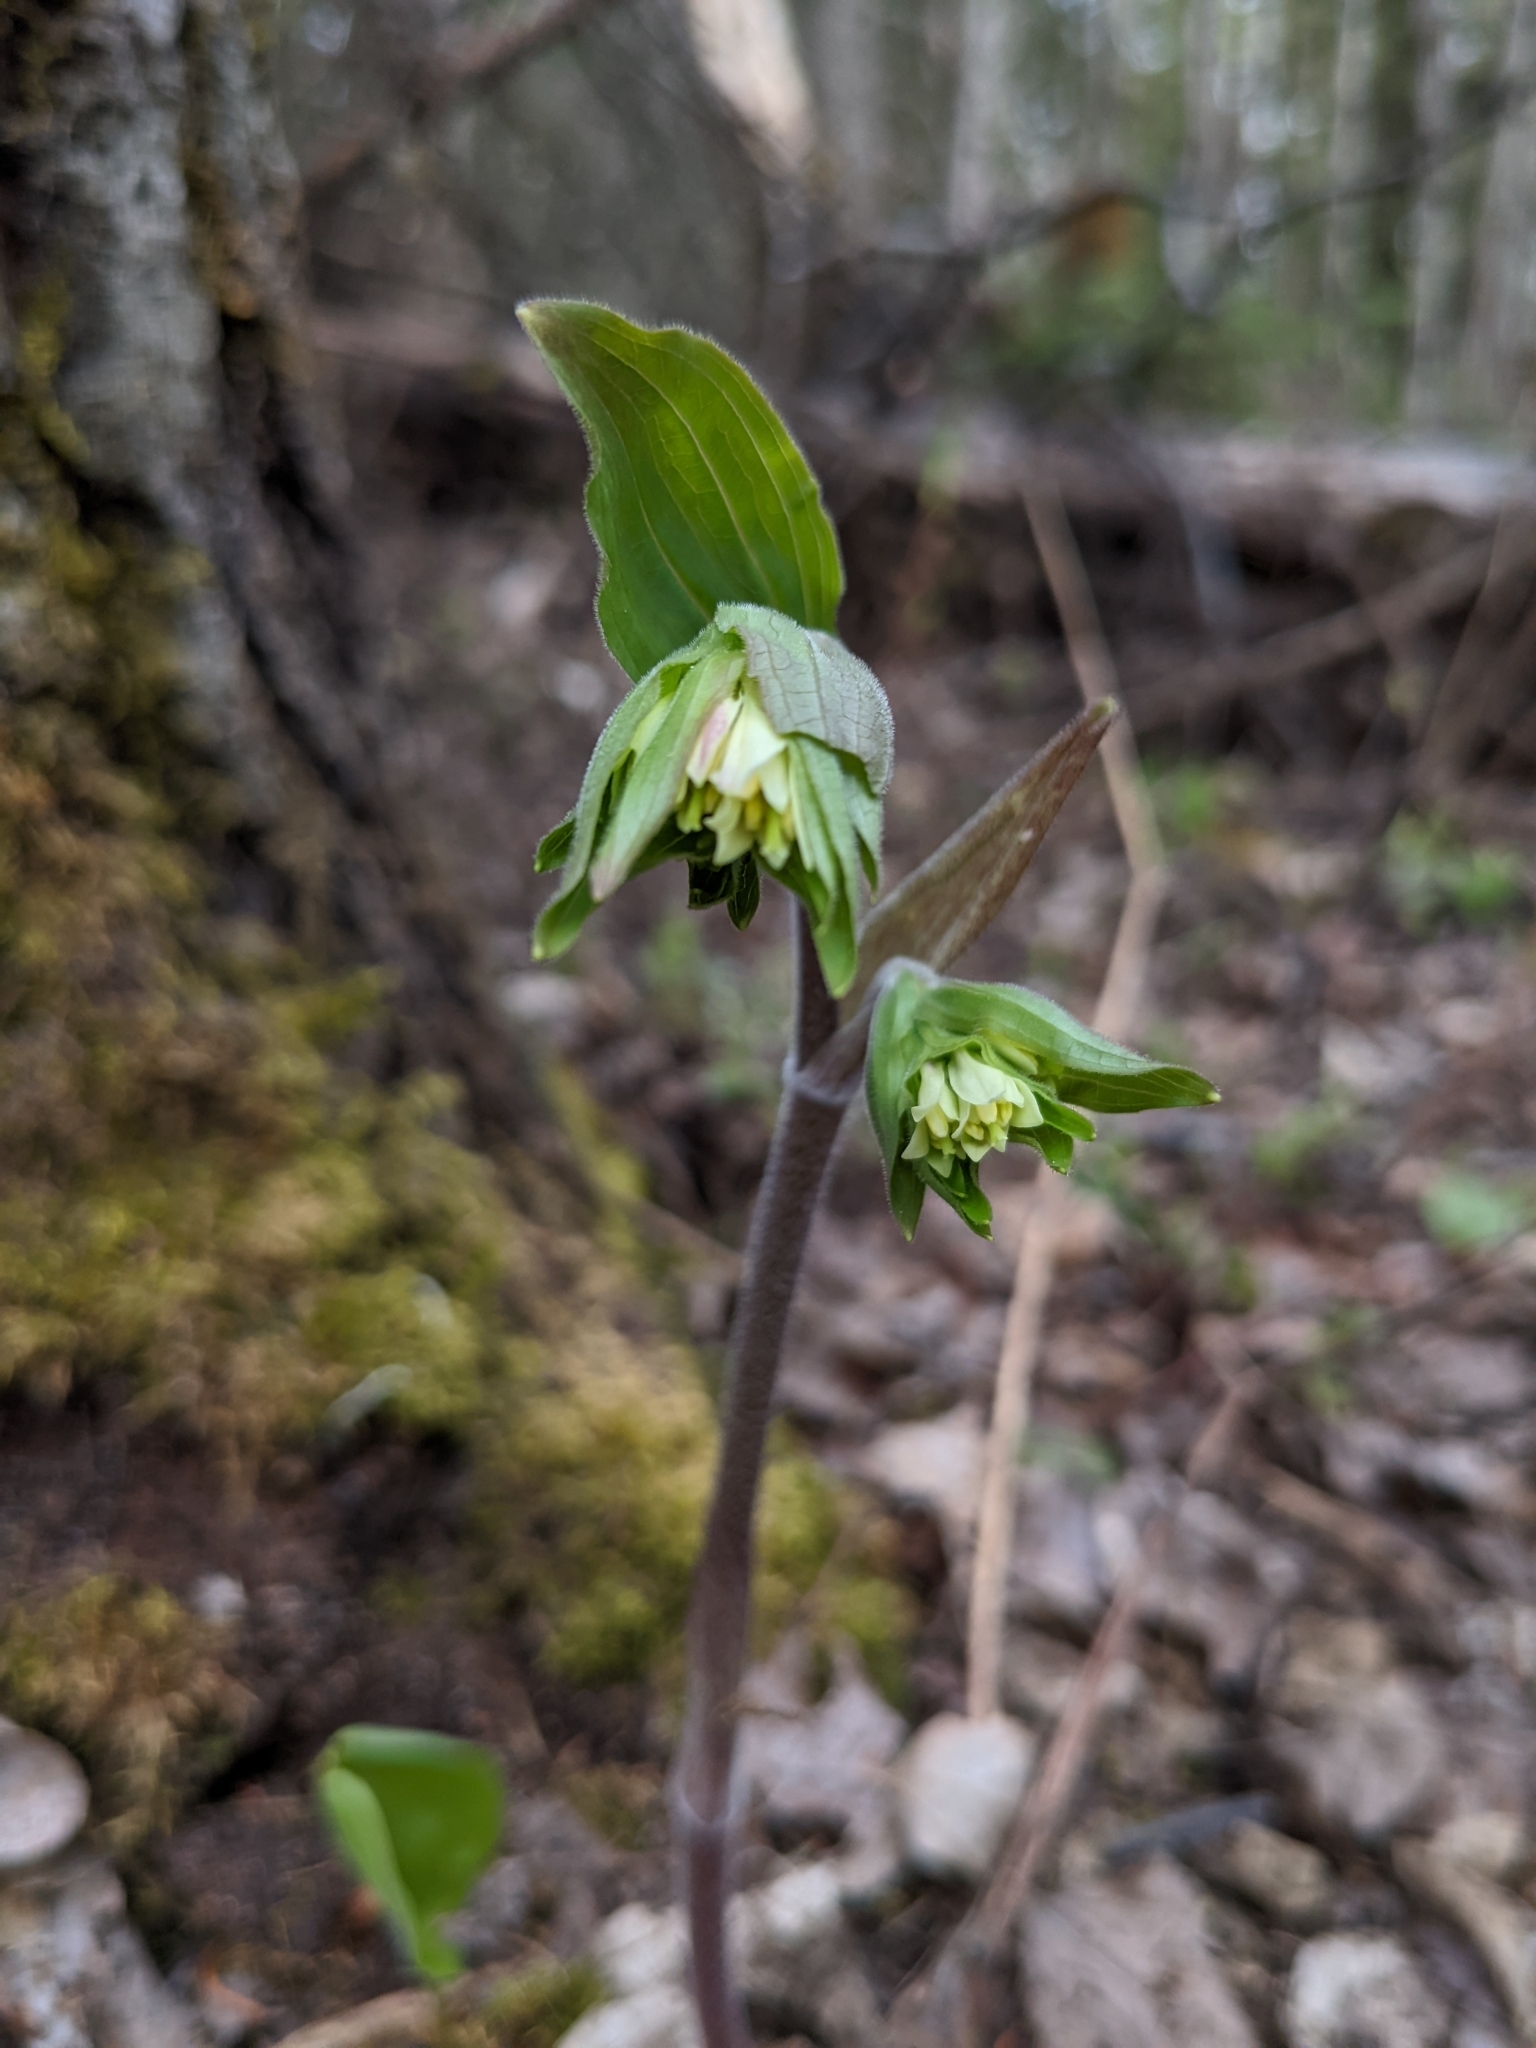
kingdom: Plantae
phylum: Tracheophyta
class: Liliopsida
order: Liliales
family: Liliaceae
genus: Prosartes
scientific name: Prosartes trachycarpa
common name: Rough-fruit fairy-bells
